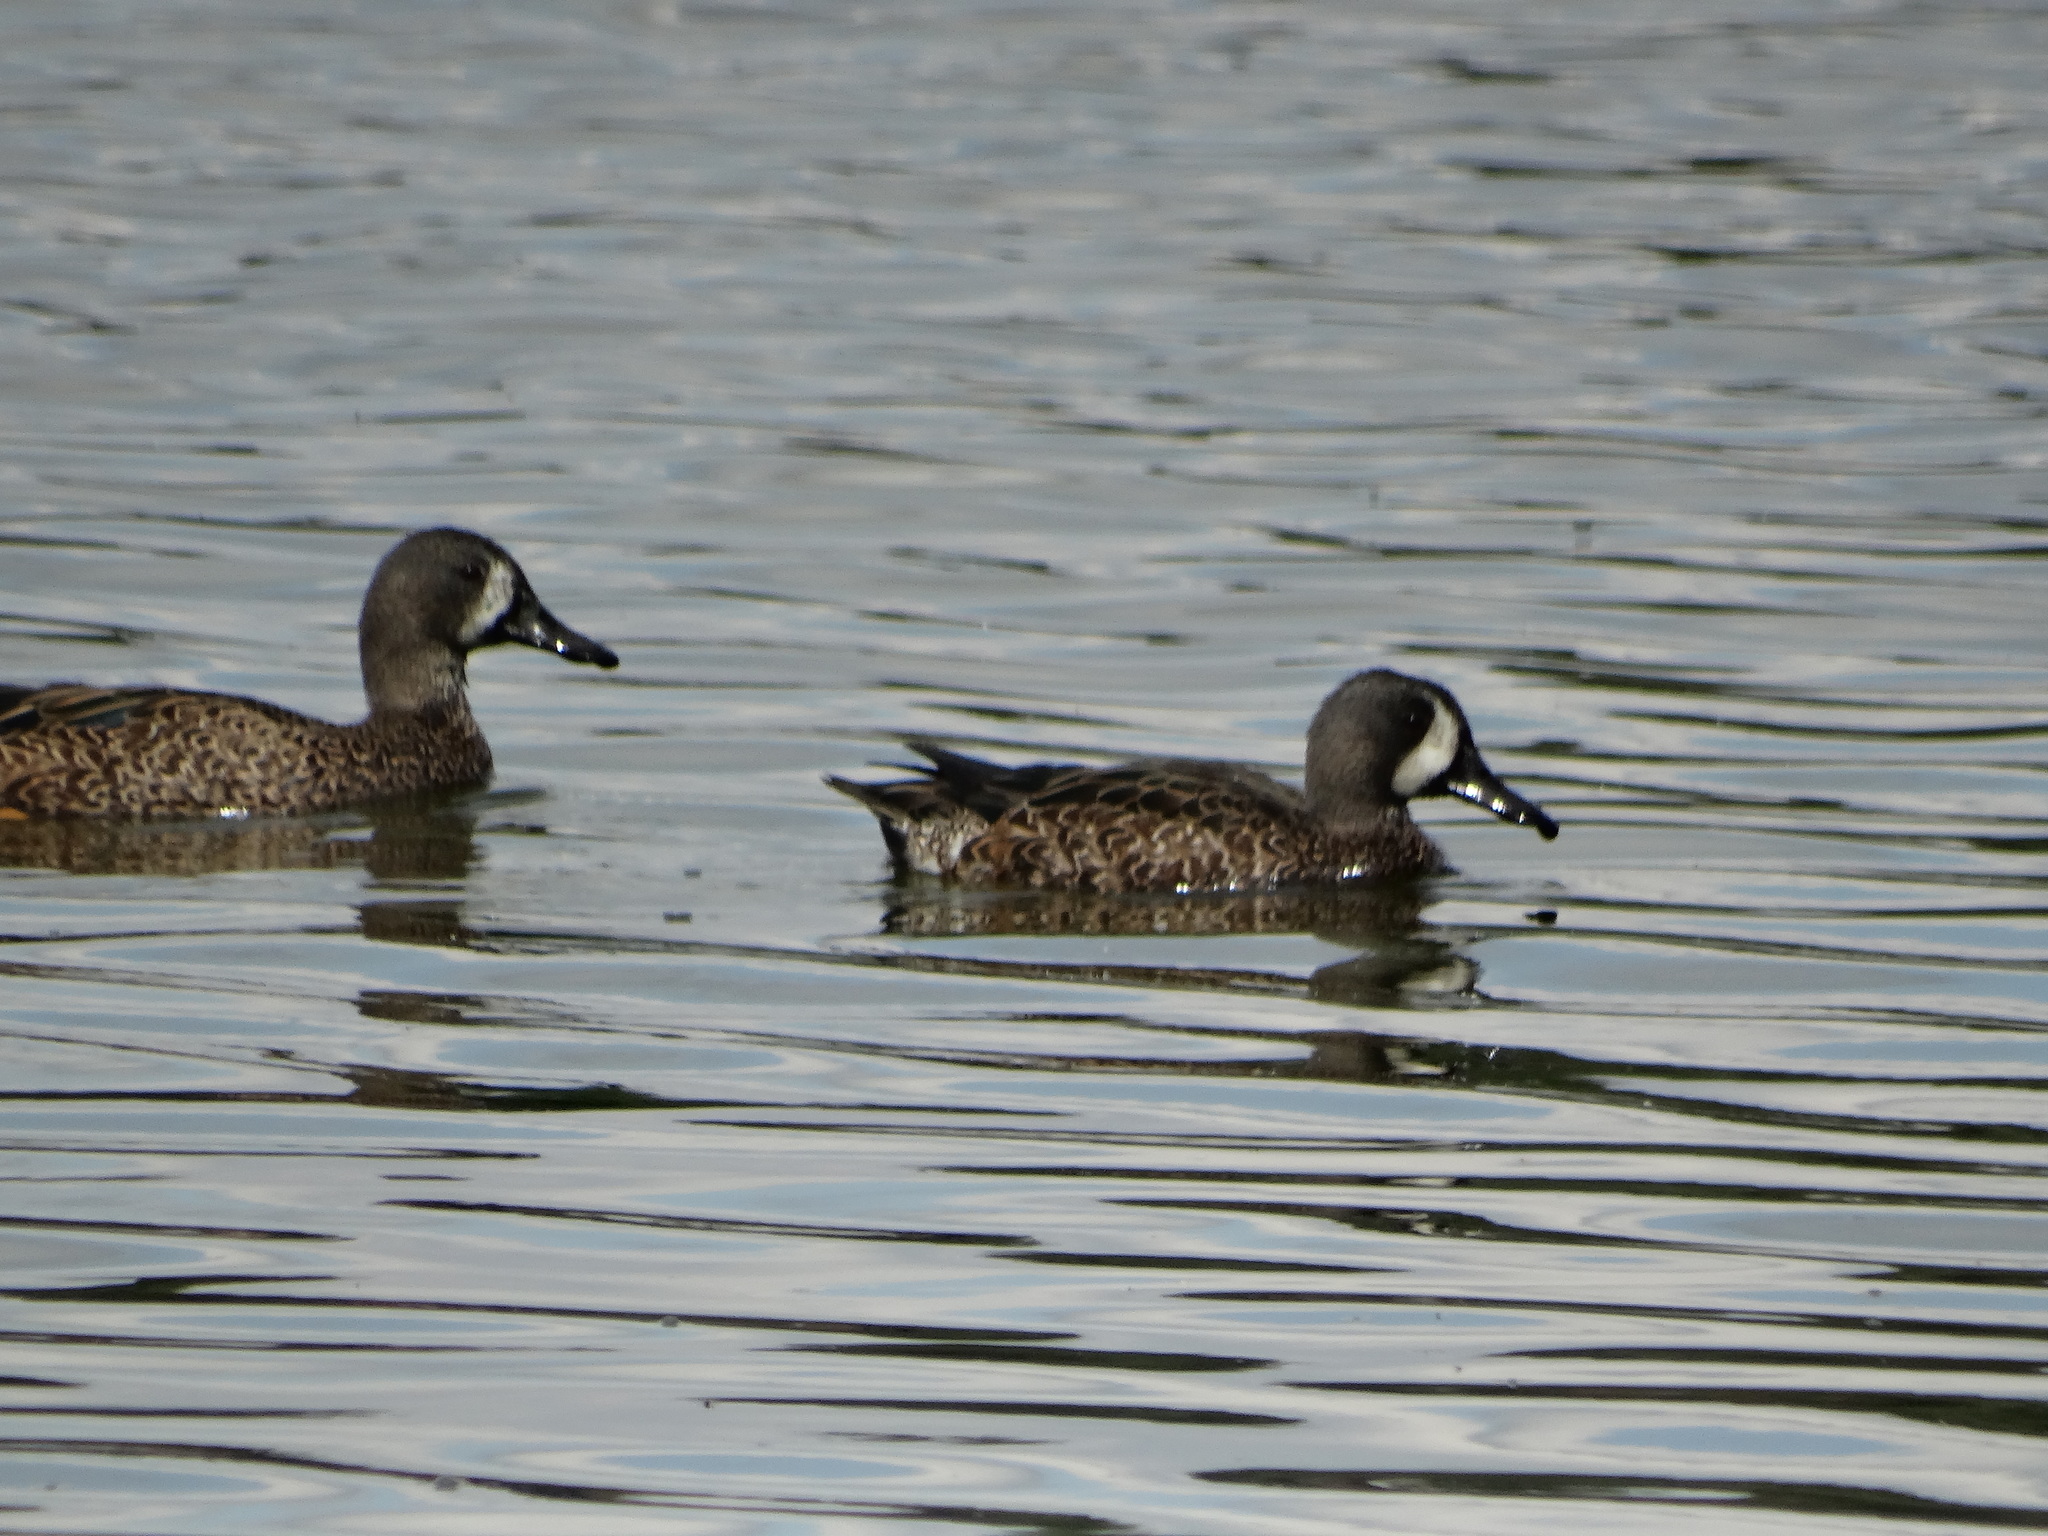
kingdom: Animalia
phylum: Chordata
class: Aves
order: Anseriformes
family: Anatidae
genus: Spatula
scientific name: Spatula discors
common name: Blue-winged teal
